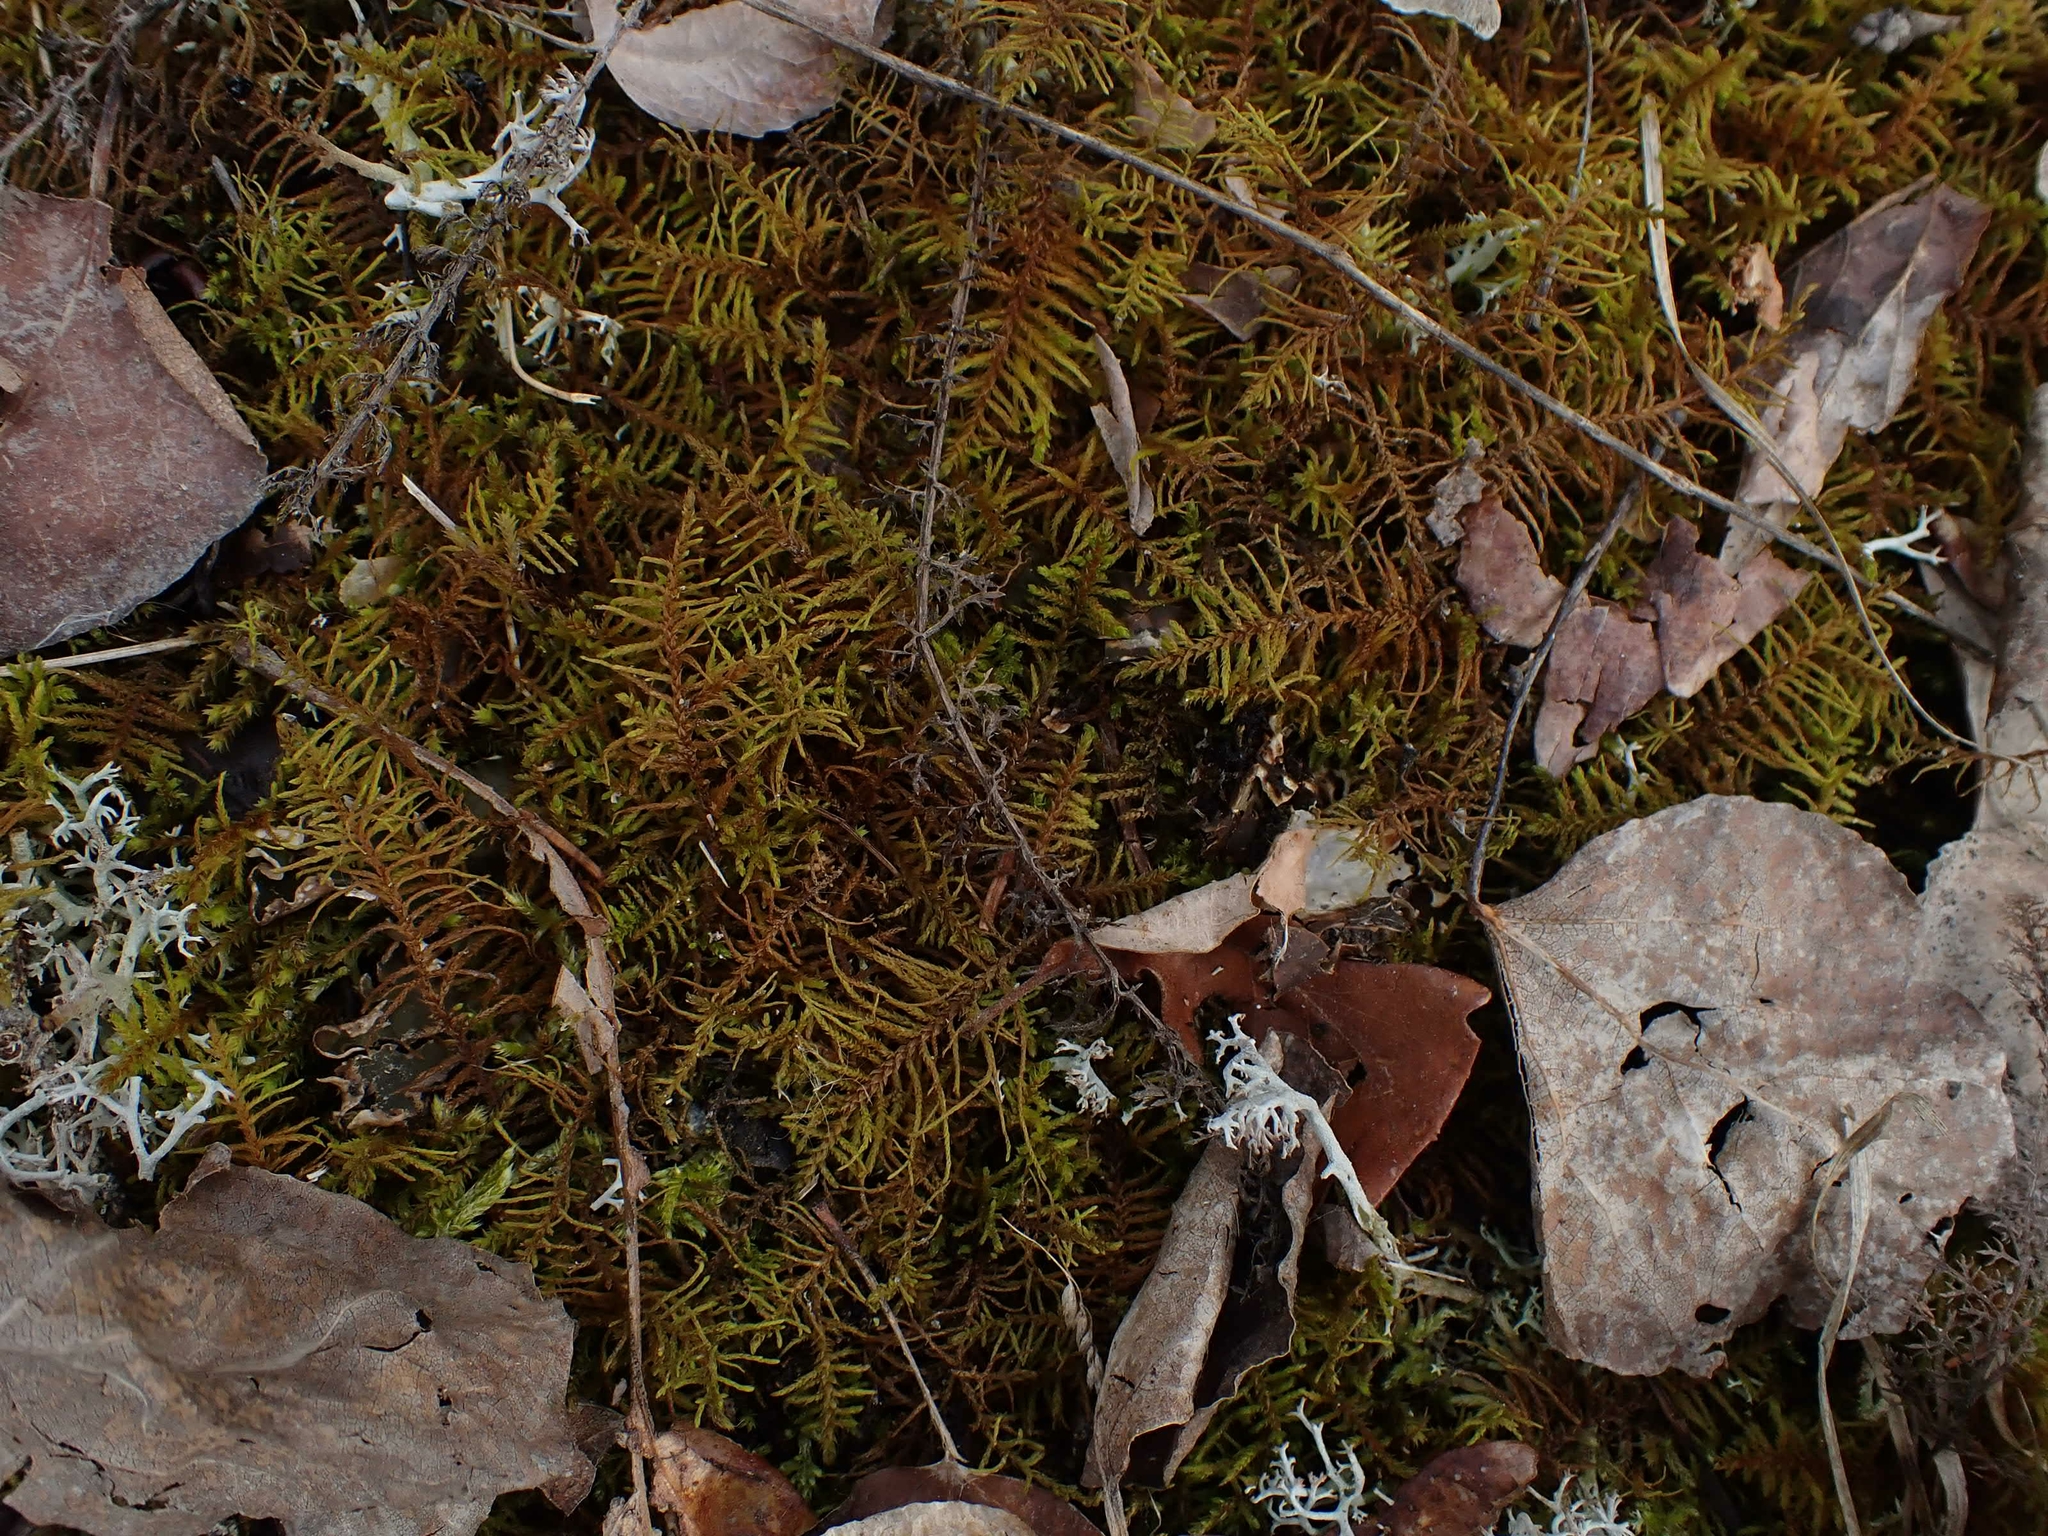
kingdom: Plantae
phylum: Bryophyta
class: Bryopsida
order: Hypnales
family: Thuidiaceae
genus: Abietinella
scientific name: Abietinella abietina
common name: Wiry fern moss
